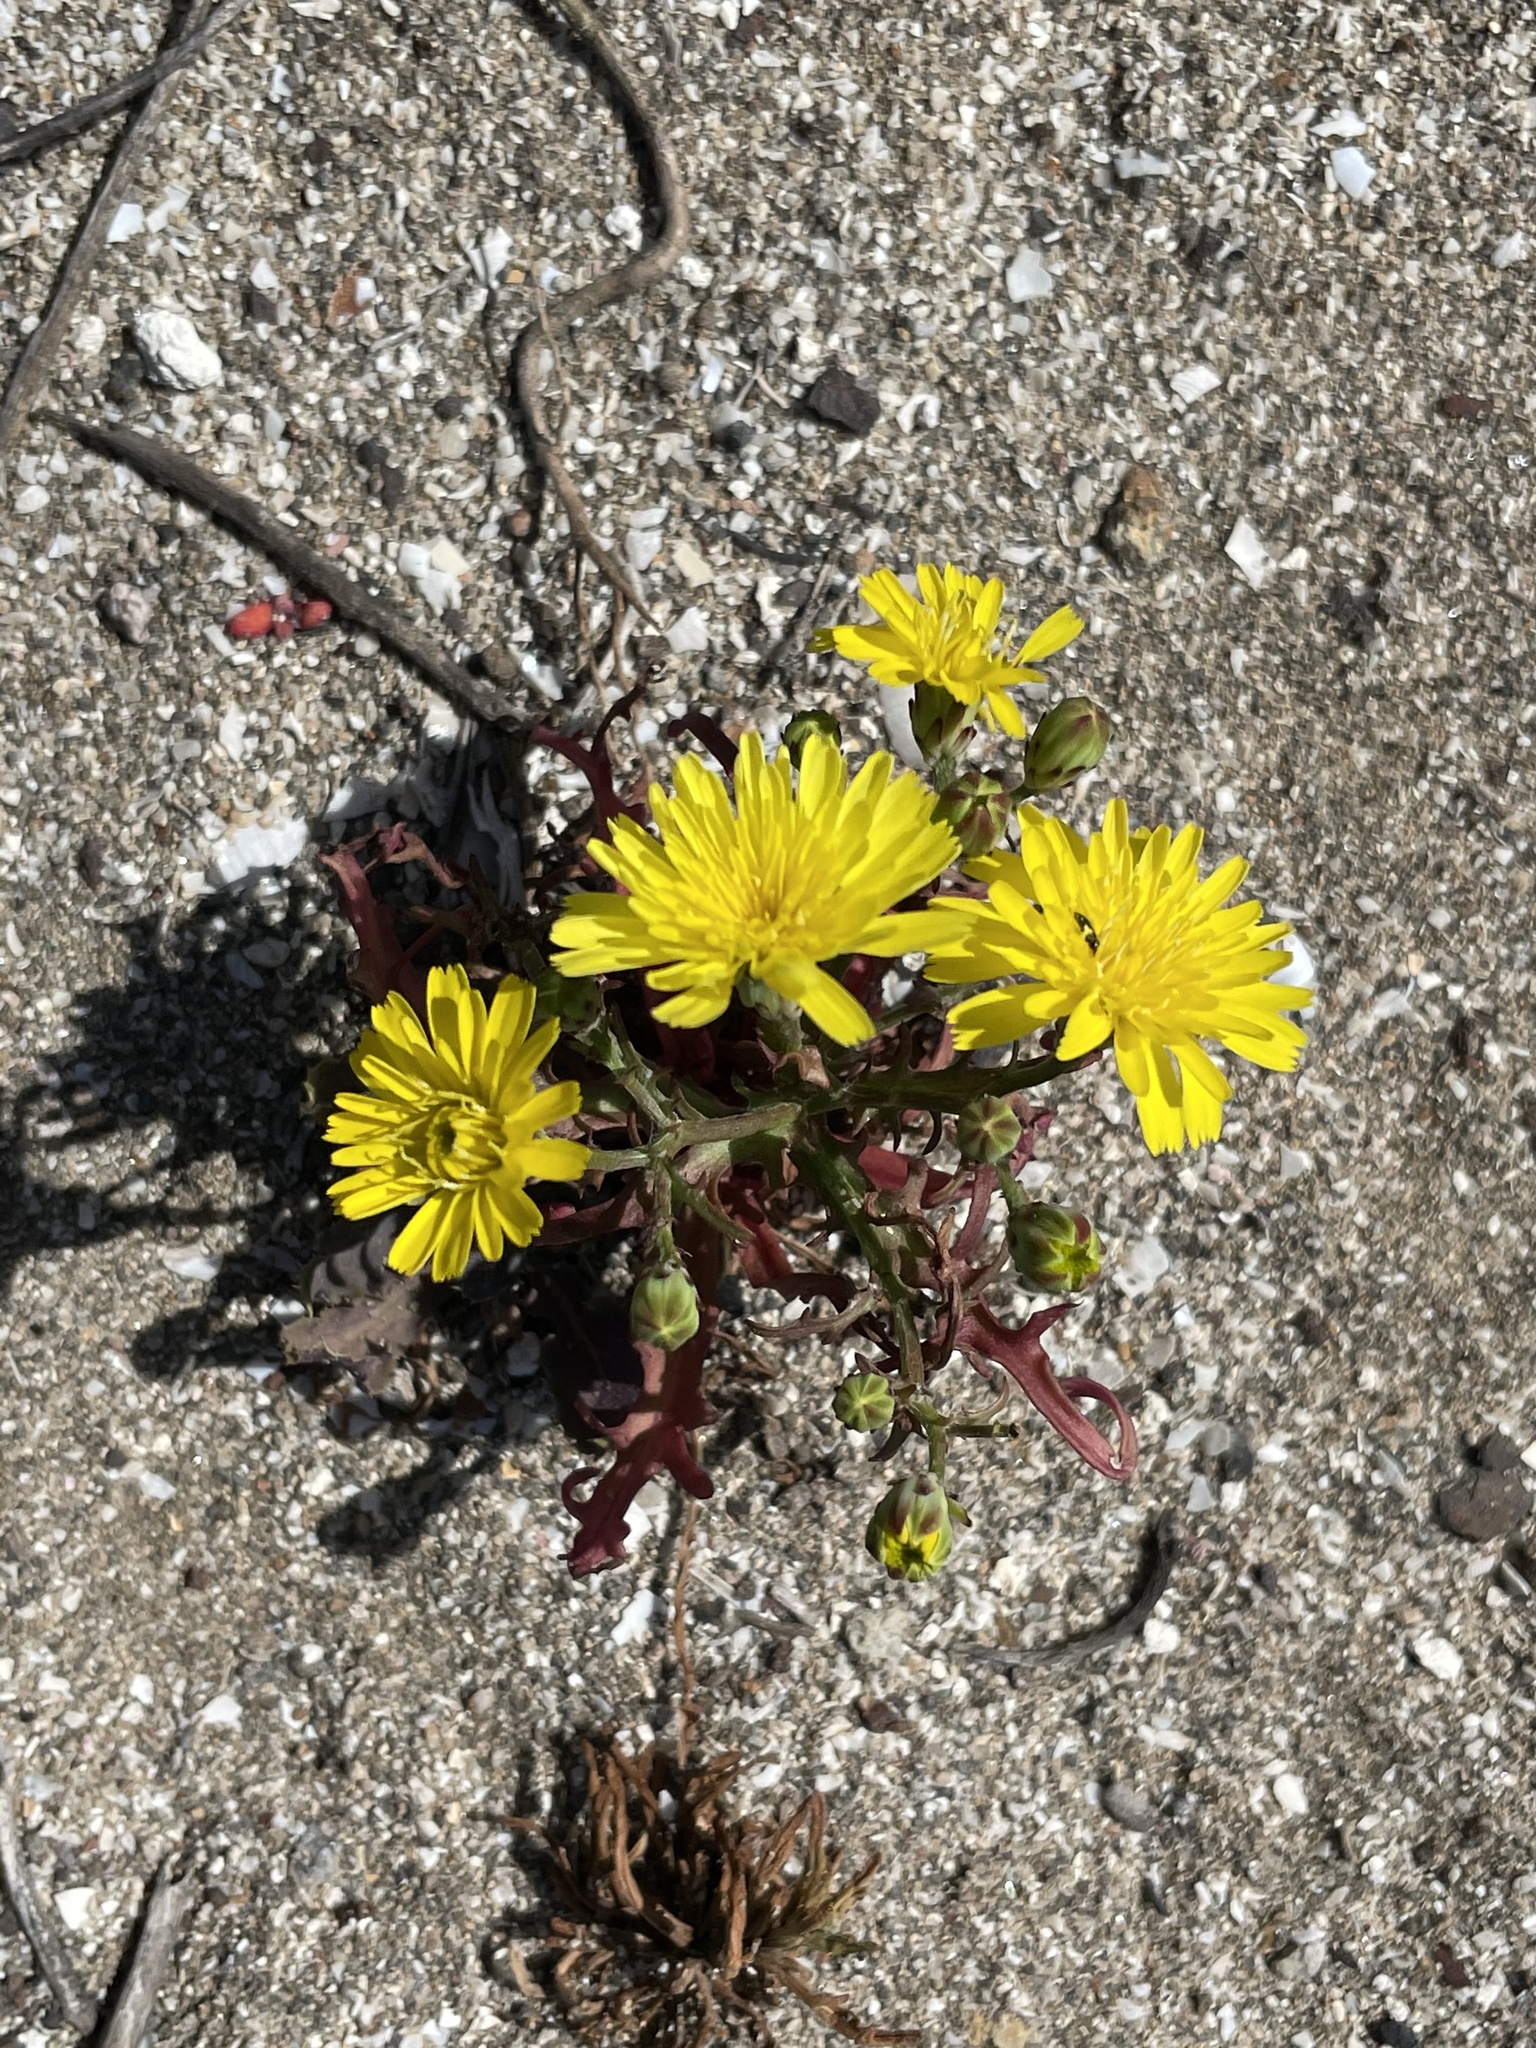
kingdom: Plantae
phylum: Tracheophyta
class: Magnoliopsida
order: Asterales
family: Asteraceae
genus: Malacothrix
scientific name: Malacothrix foliosa
